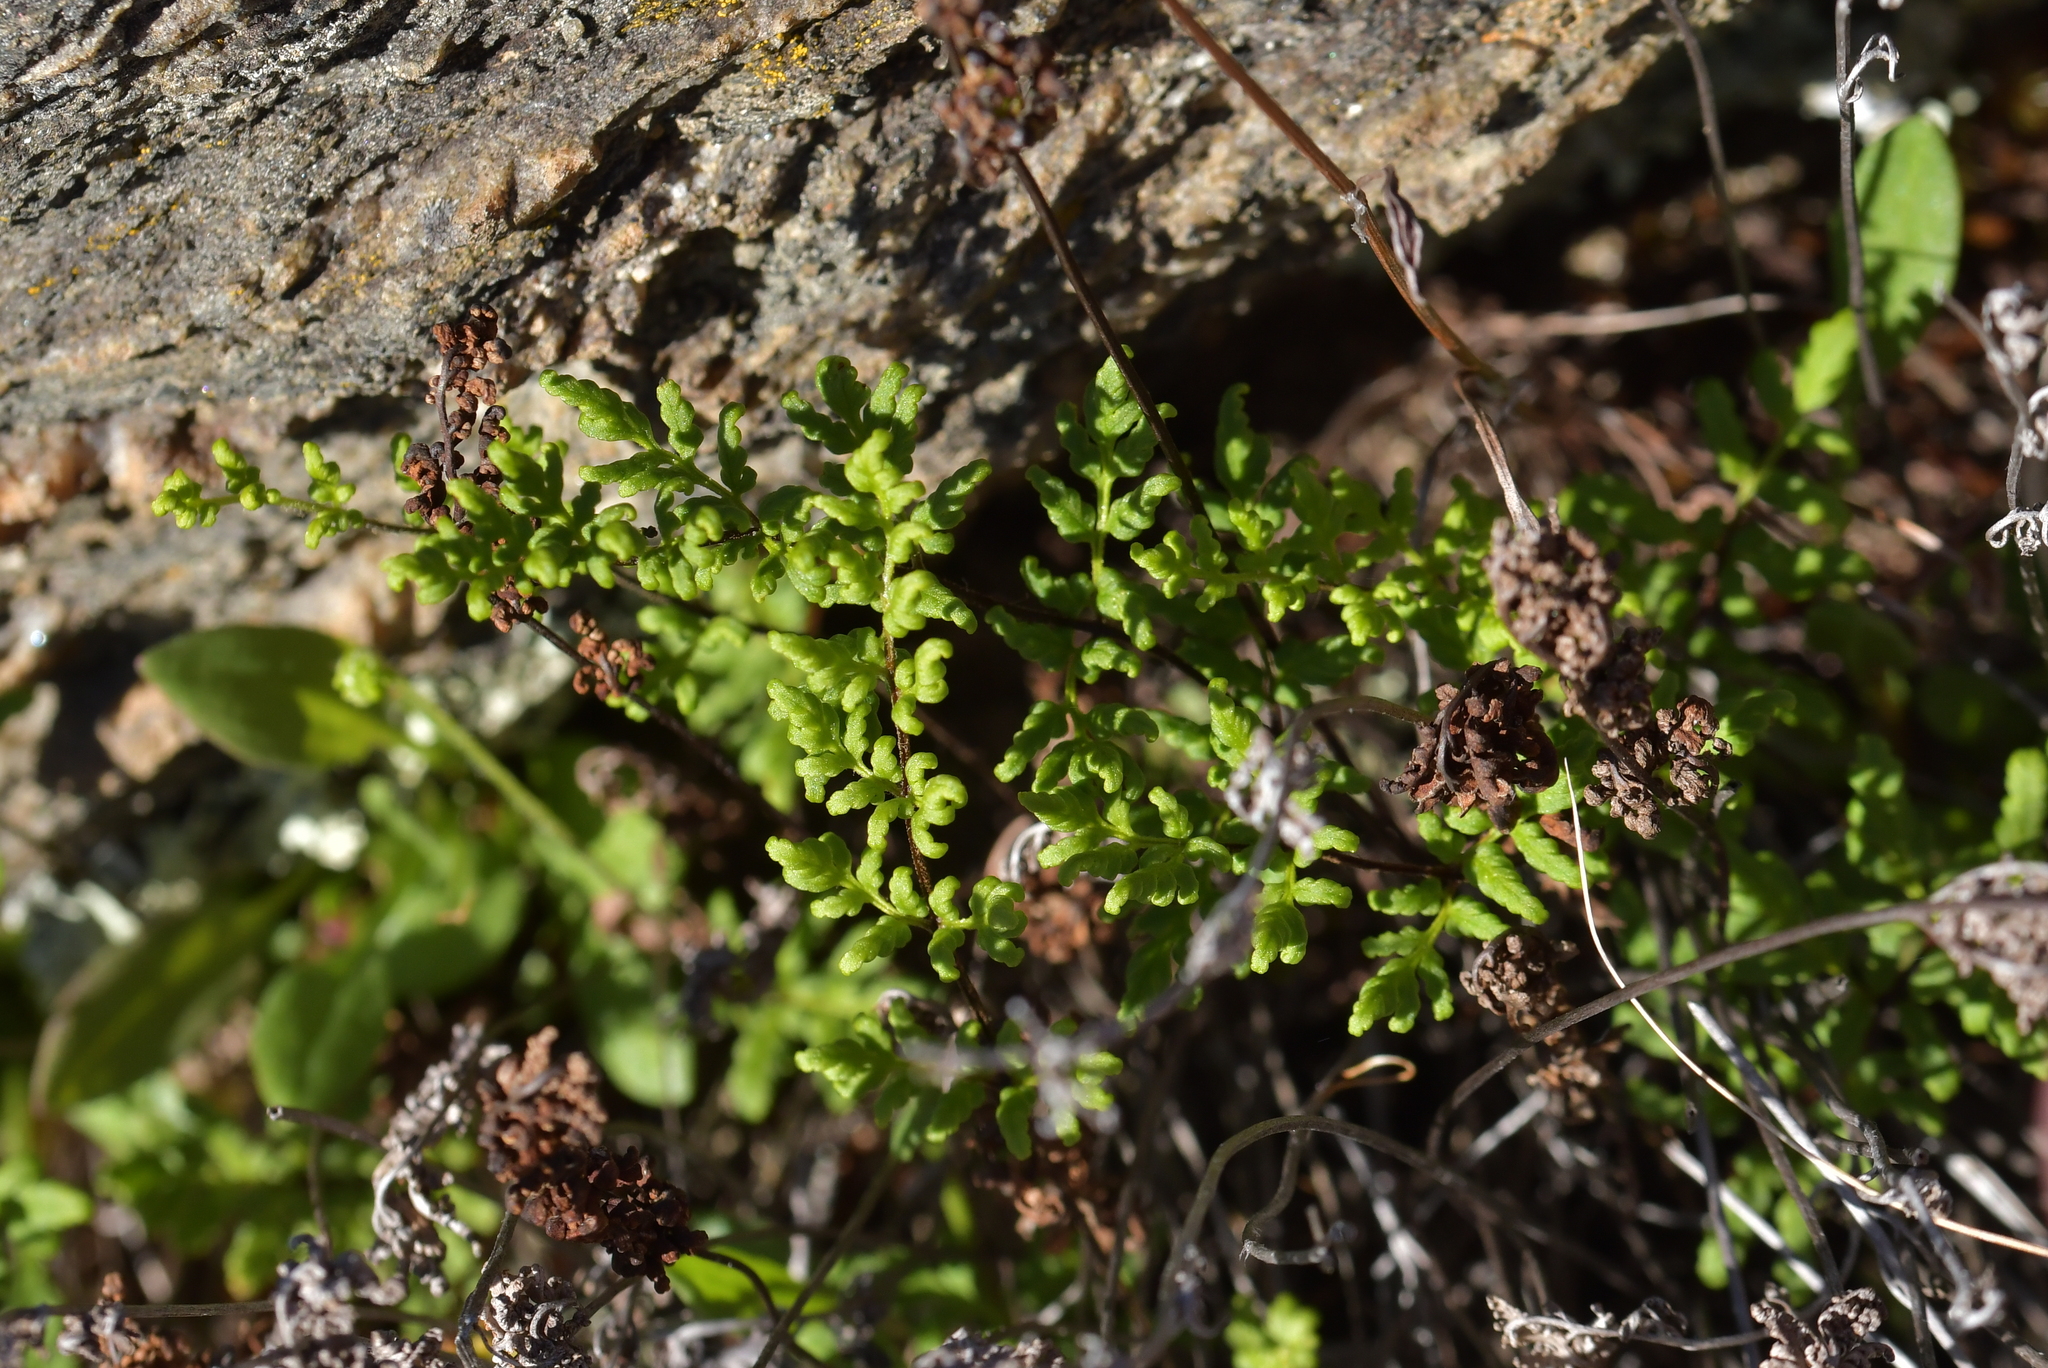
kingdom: Plantae
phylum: Tracheophyta
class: Polypodiopsida
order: Polypodiales
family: Pteridaceae
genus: Cheilanthes
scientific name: Cheilanthes sieberi
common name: Mulga fern
